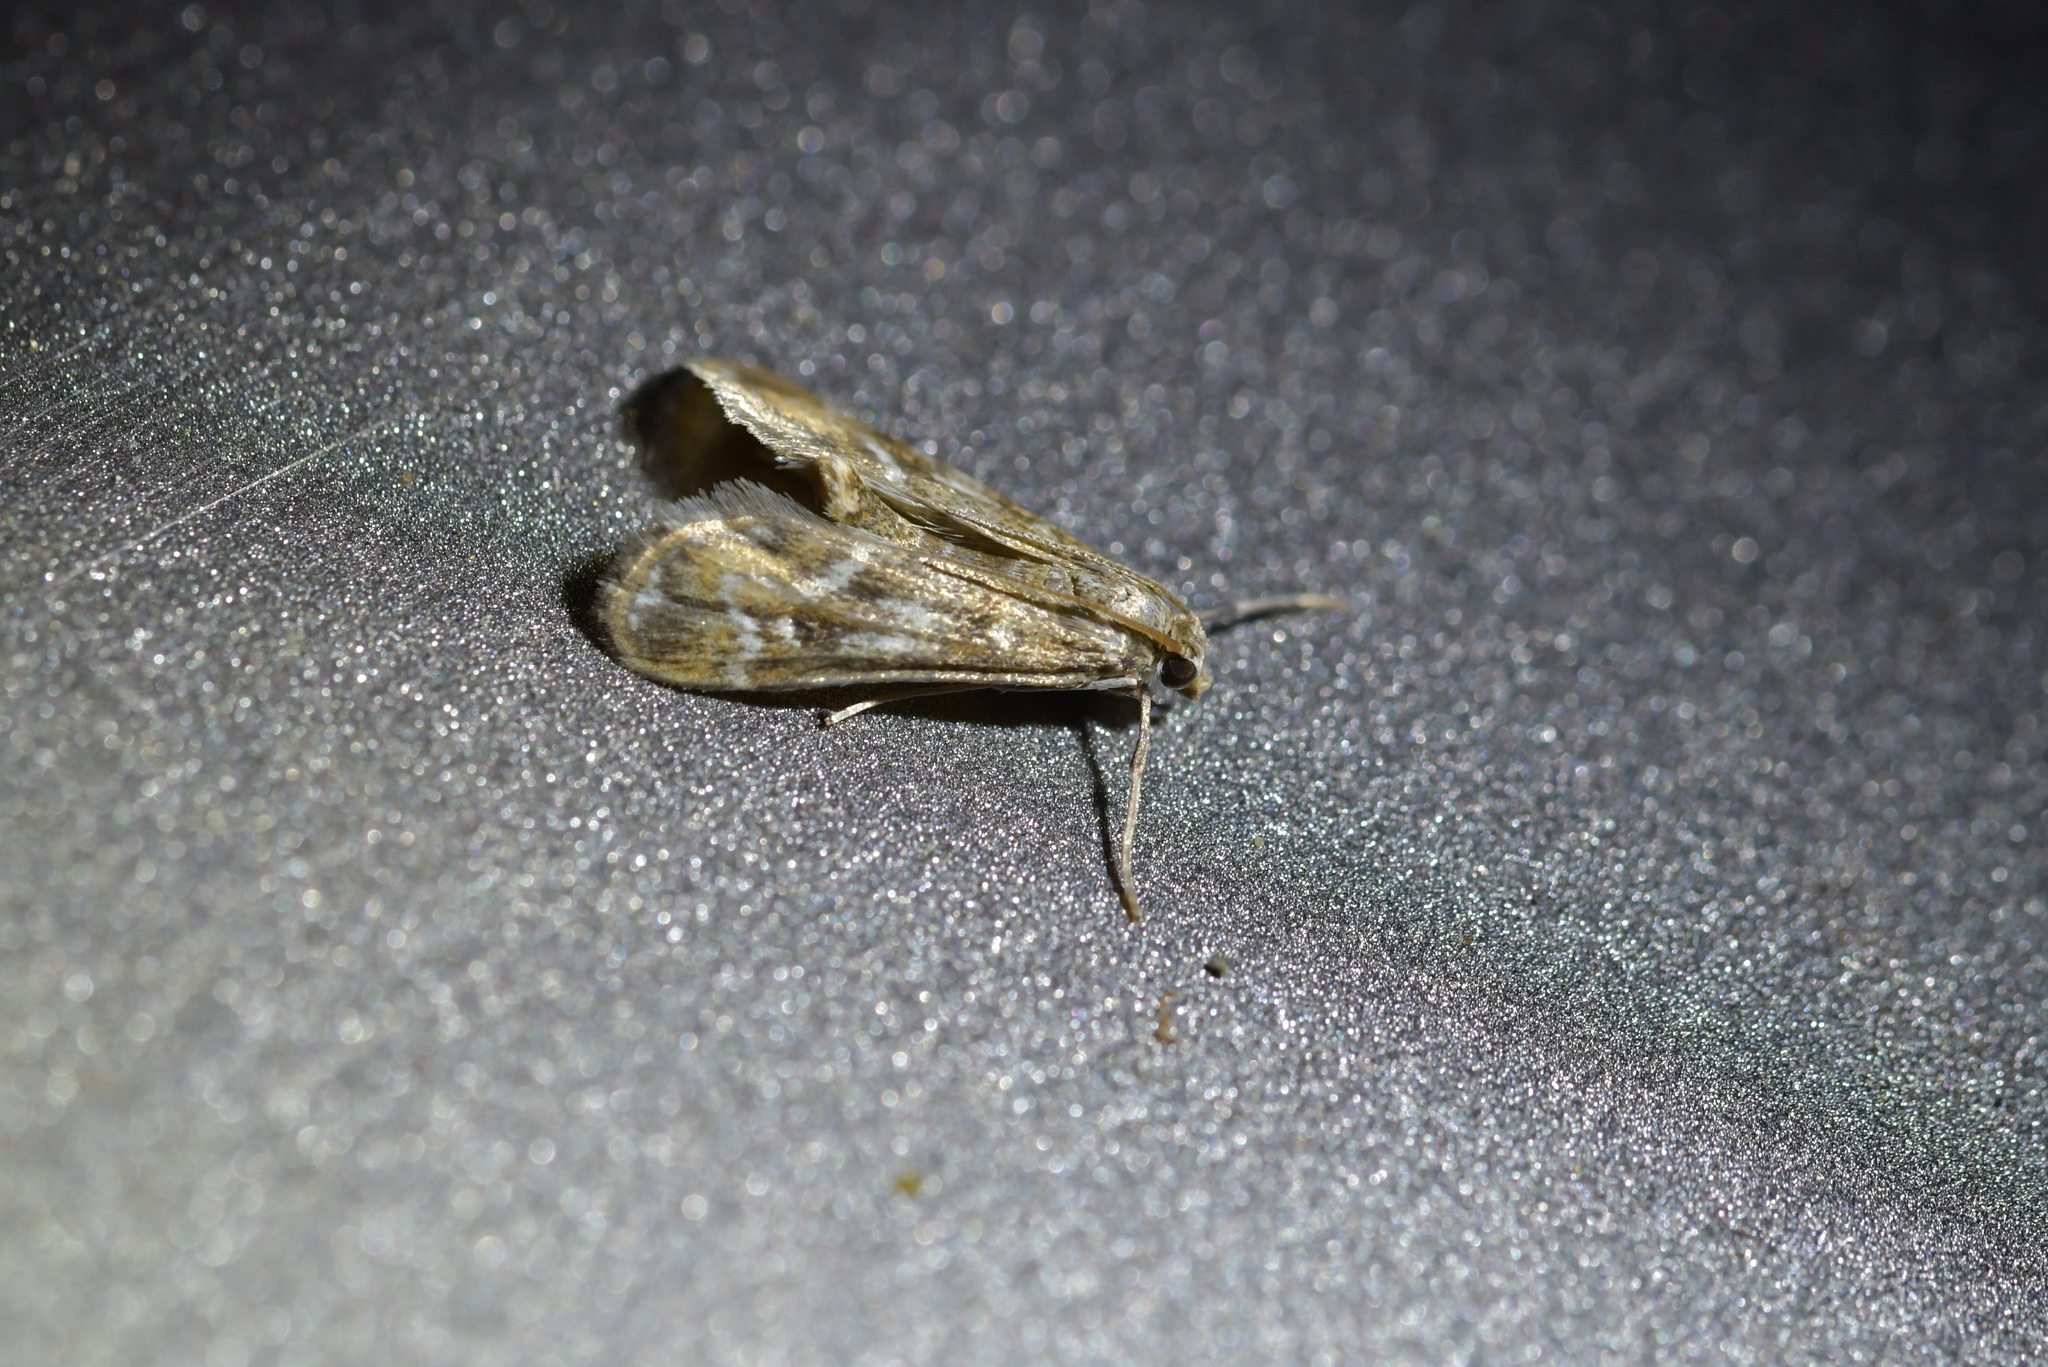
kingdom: Animalia
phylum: Arthropoda
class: Insecta
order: Lepidoptera
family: Crambidae
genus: Hygraula
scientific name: Hygraula nitens
